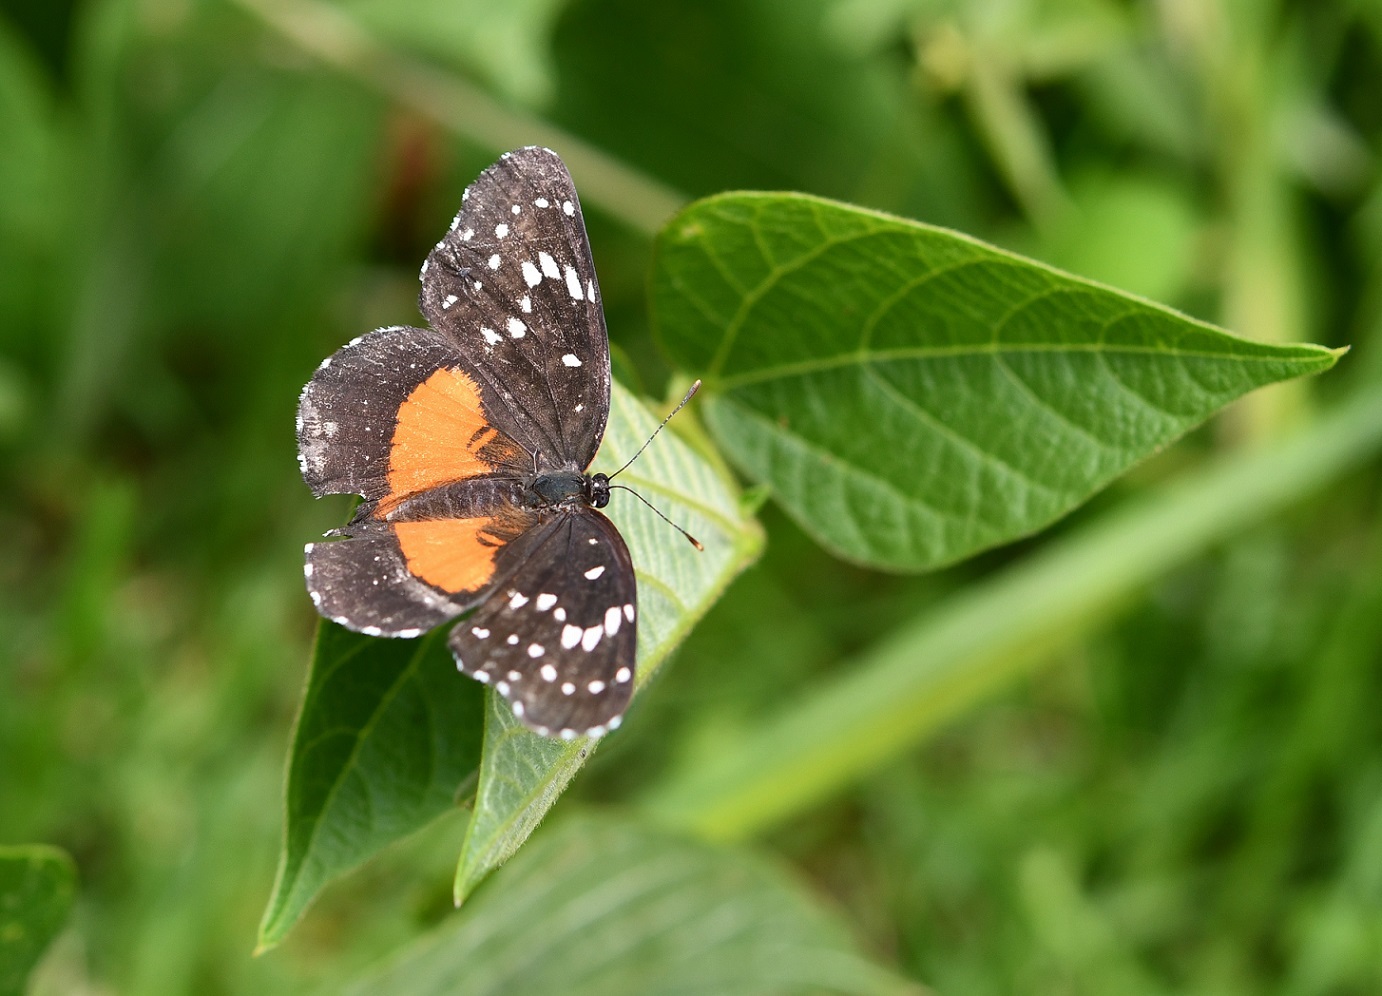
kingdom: Animalia
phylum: Arthropoda
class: Insecta
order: Lepidoptera
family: Nymphalidae
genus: Chlosyne
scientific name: Chlosyne lacinia
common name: Bordered patch
